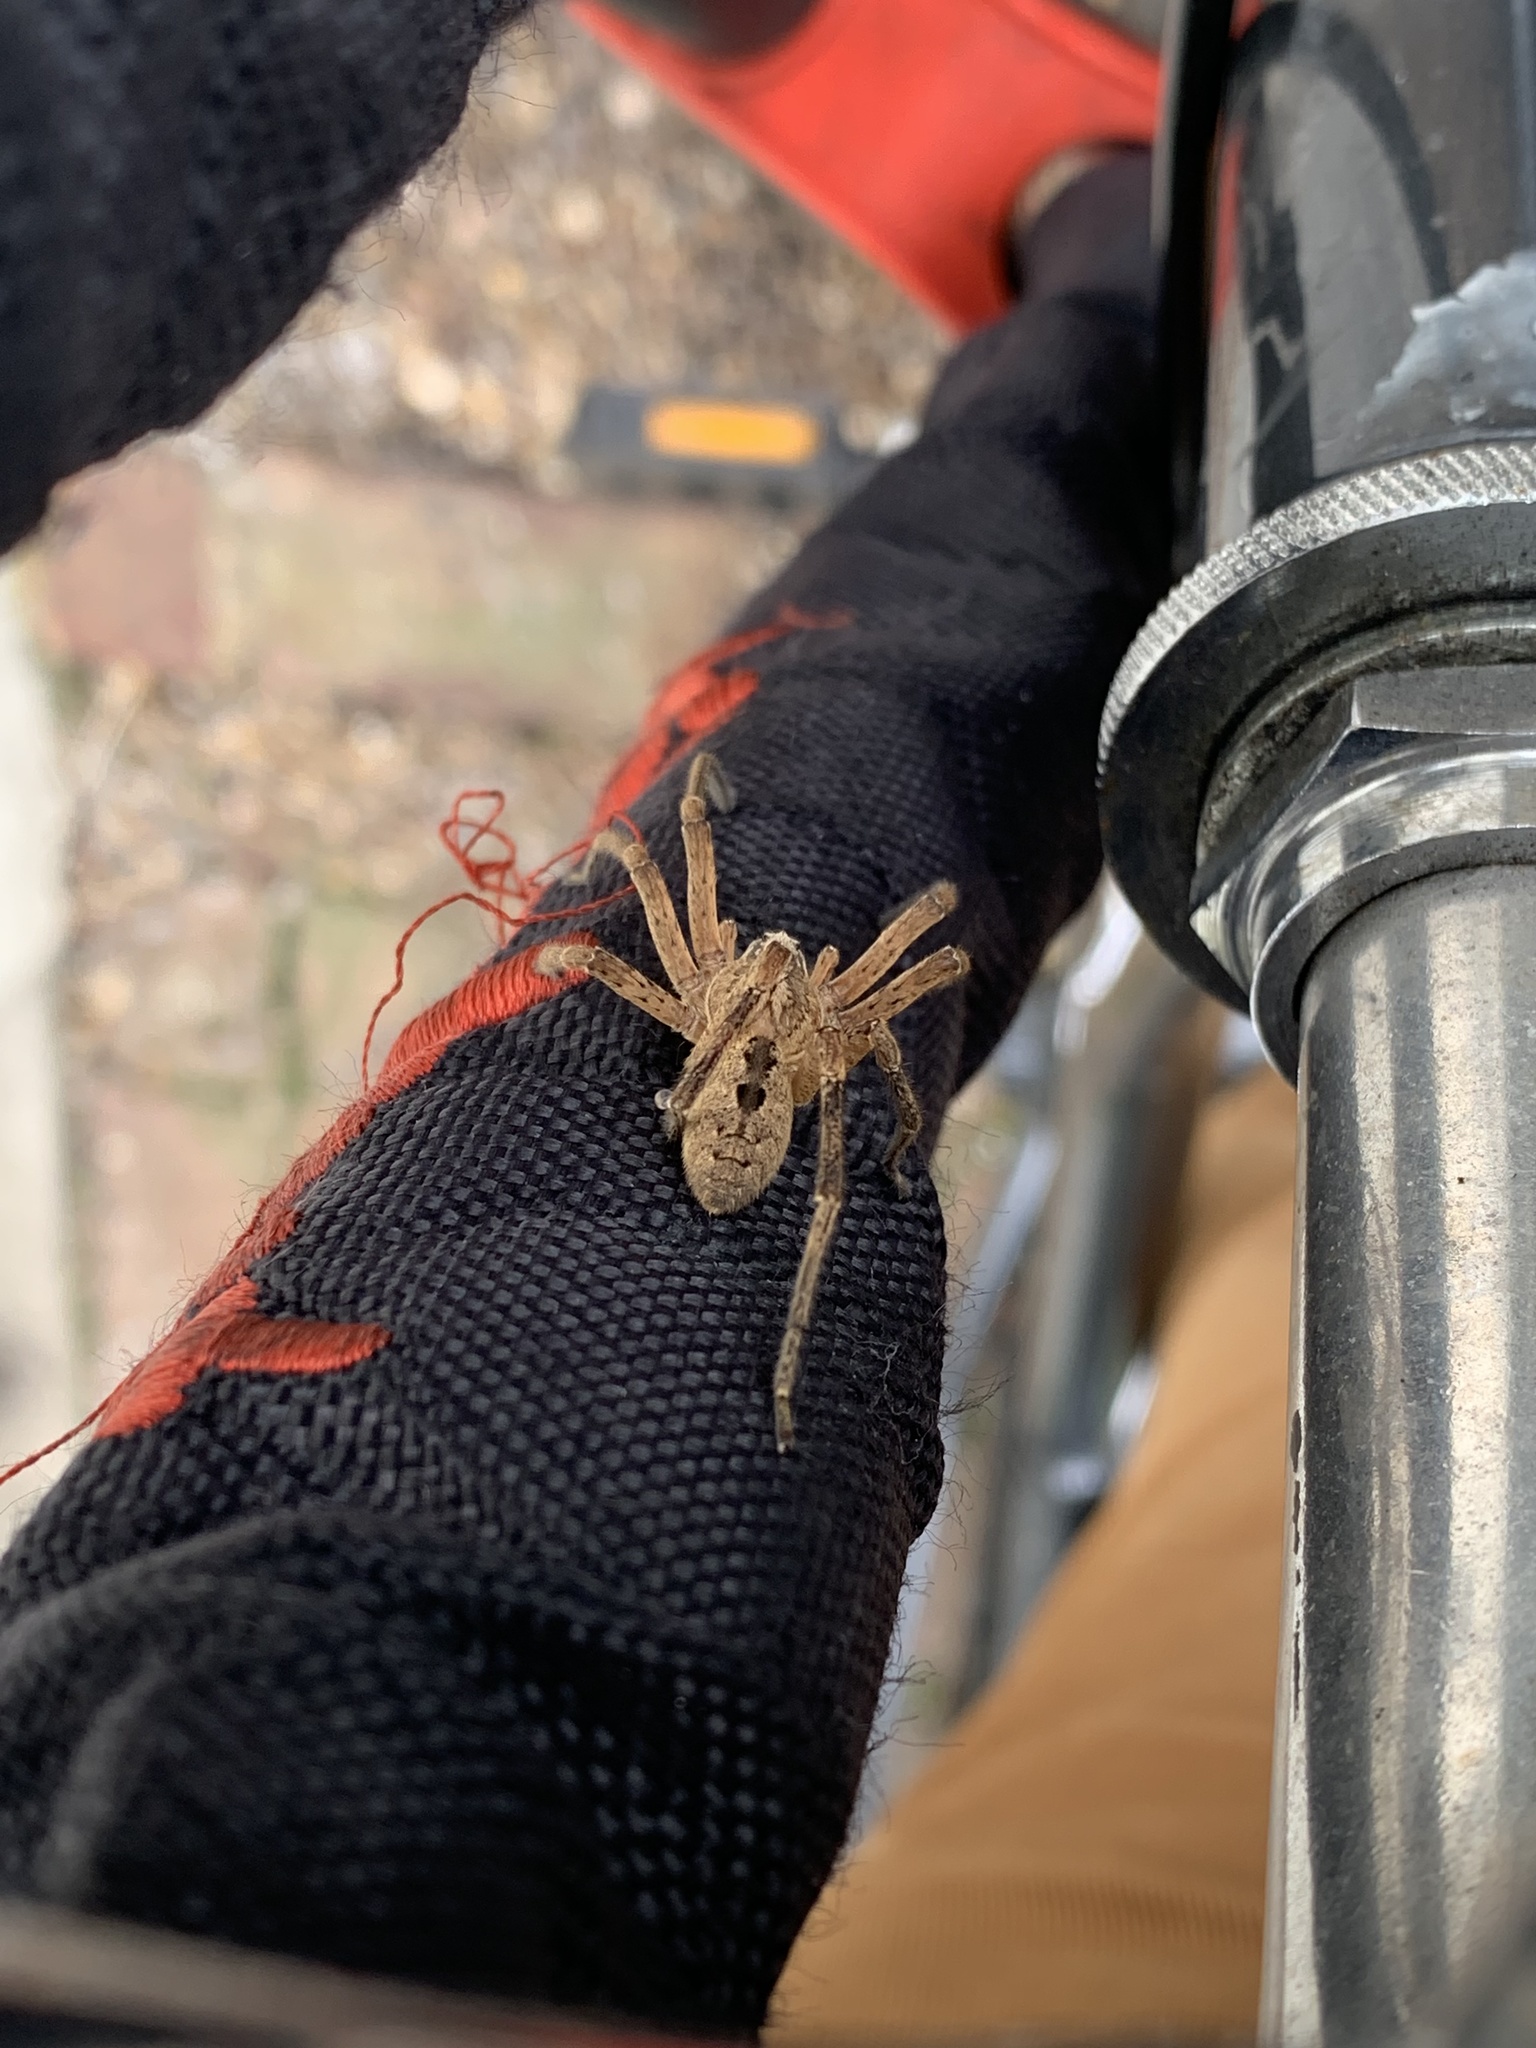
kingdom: Animalia
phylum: Arthropoda
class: Arachnida
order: Araneae
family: Zoropsidae
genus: Zoropsis
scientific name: Zoropsis spinimana
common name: Zoropsid spider
